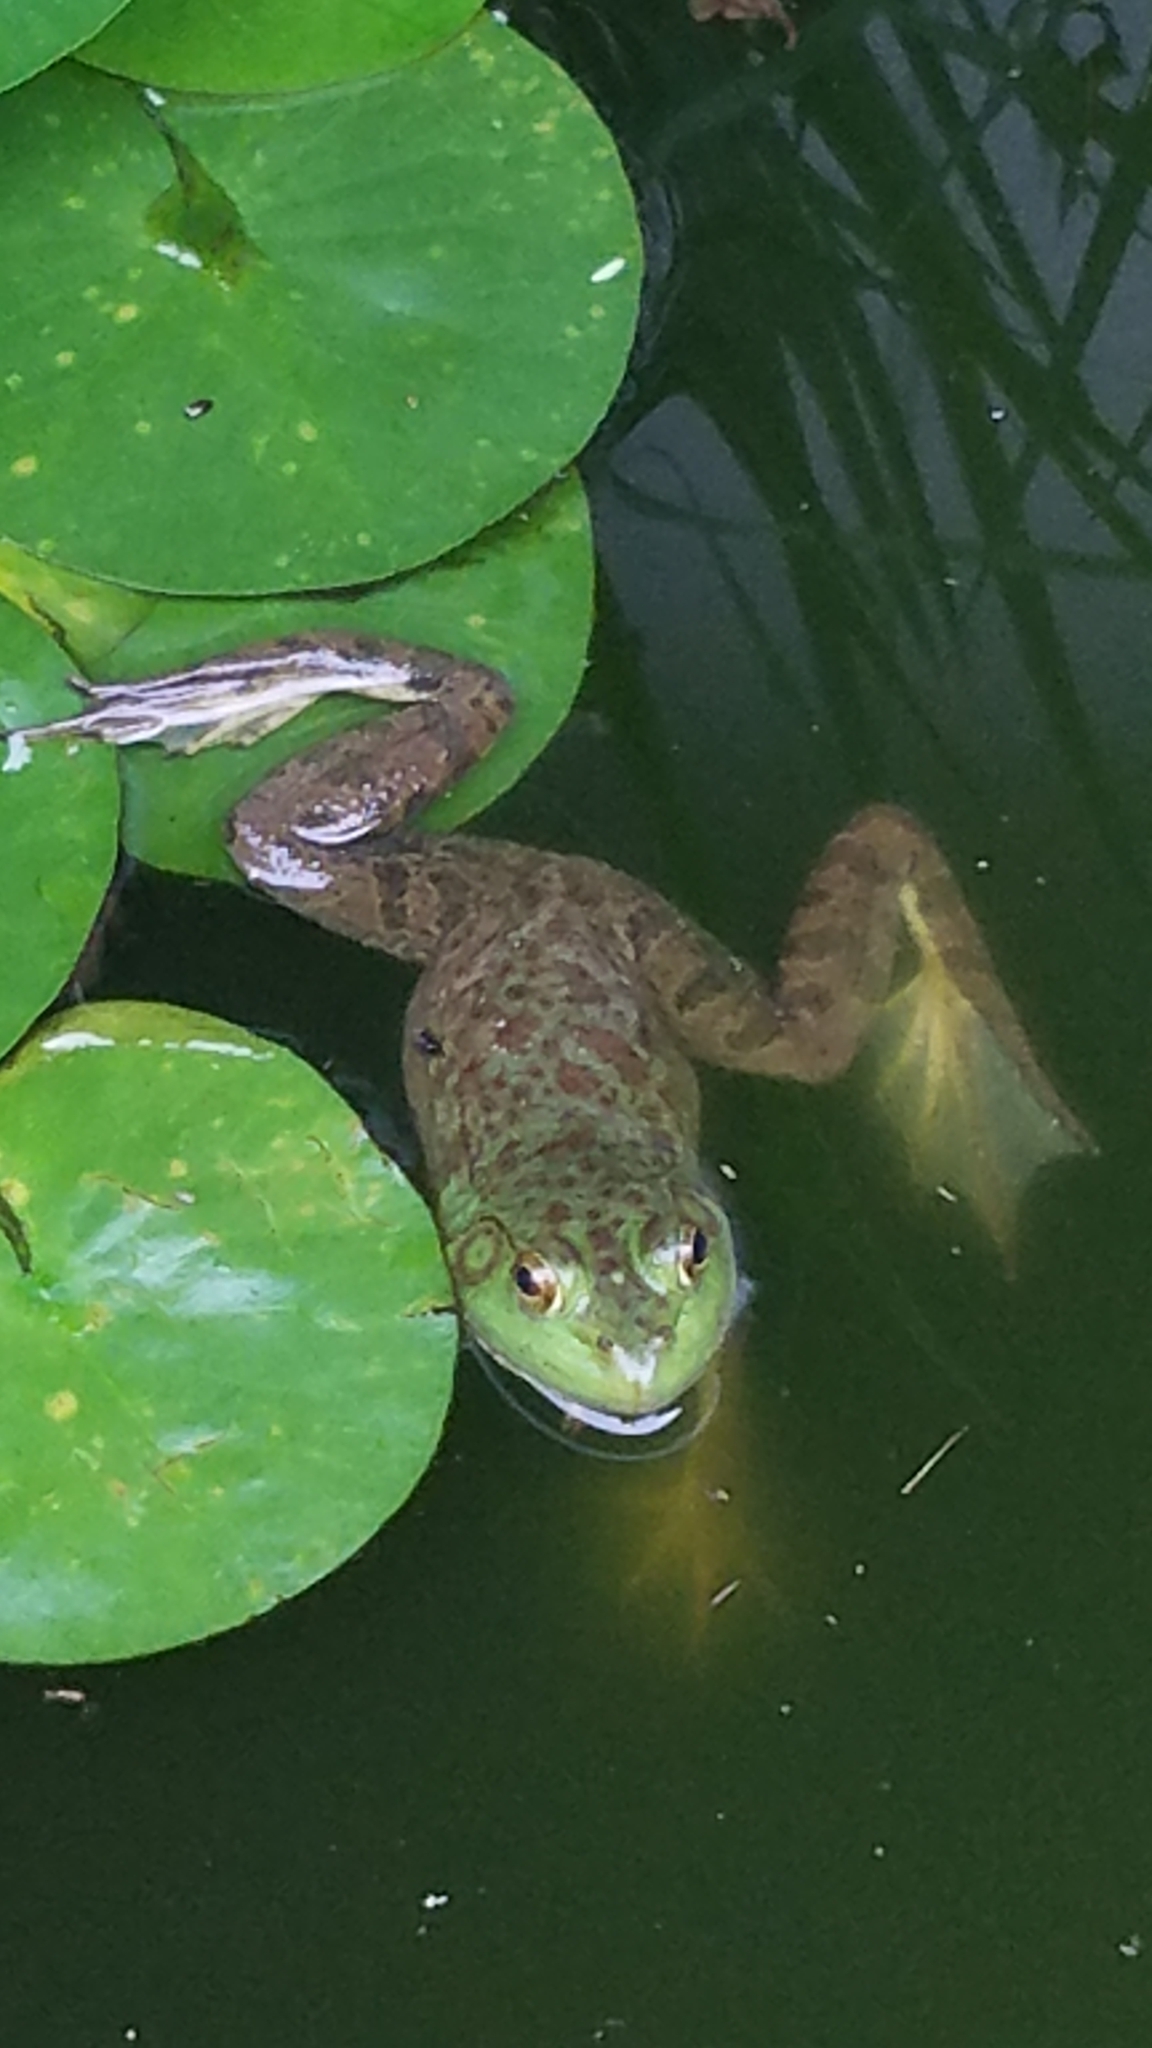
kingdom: Animalia
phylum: Chordata
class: Amphibia
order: Anura
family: Ranidae
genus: Lithobates
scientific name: Lithobates catesbeianus
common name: American bullfrog
